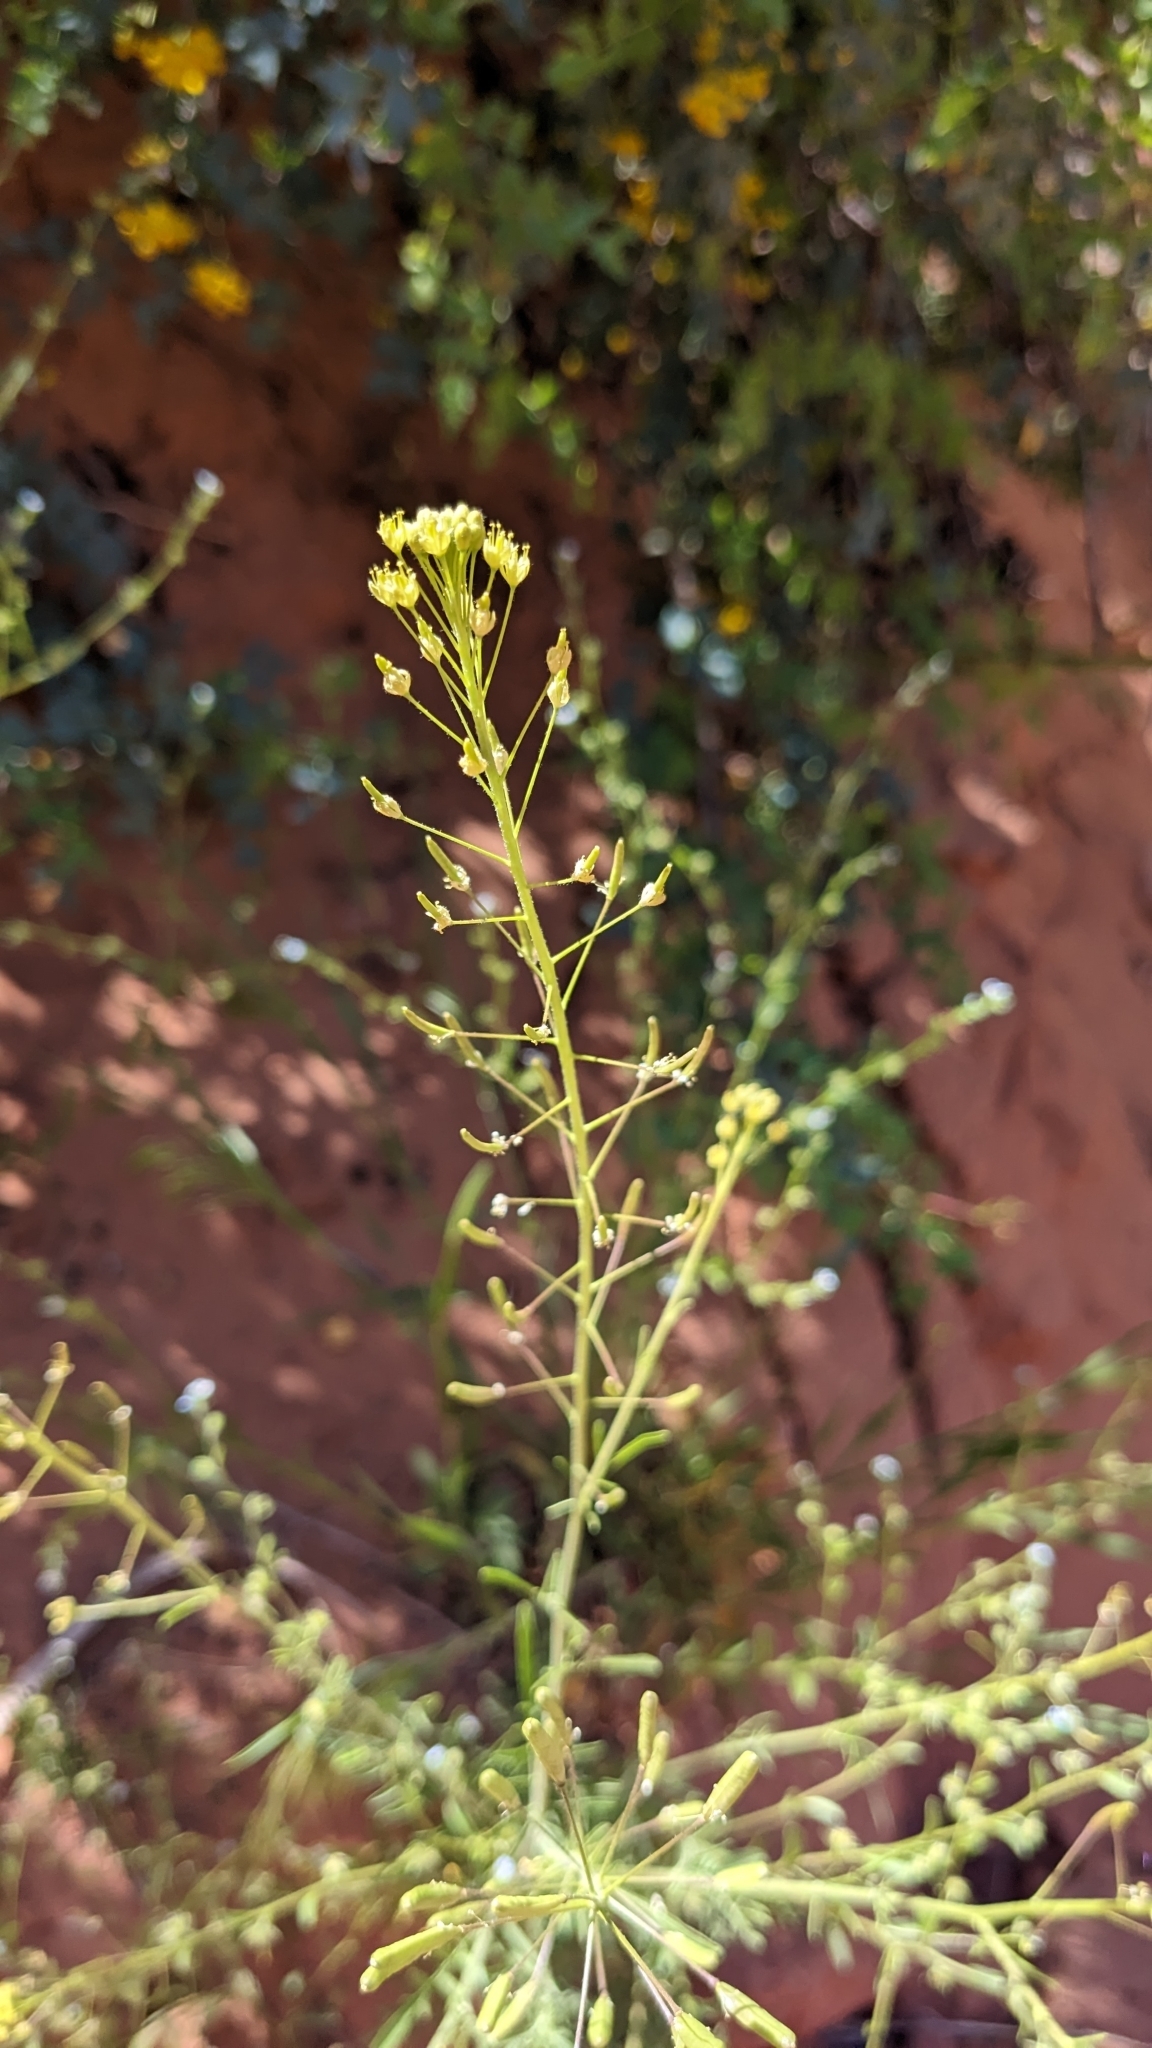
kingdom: Plantae
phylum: Tracheophyta
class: Magnoliopsida
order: Brassicales
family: Brassicaceae
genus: Descurainia
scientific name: Descurainia pinnata
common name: Western tansy mustard
